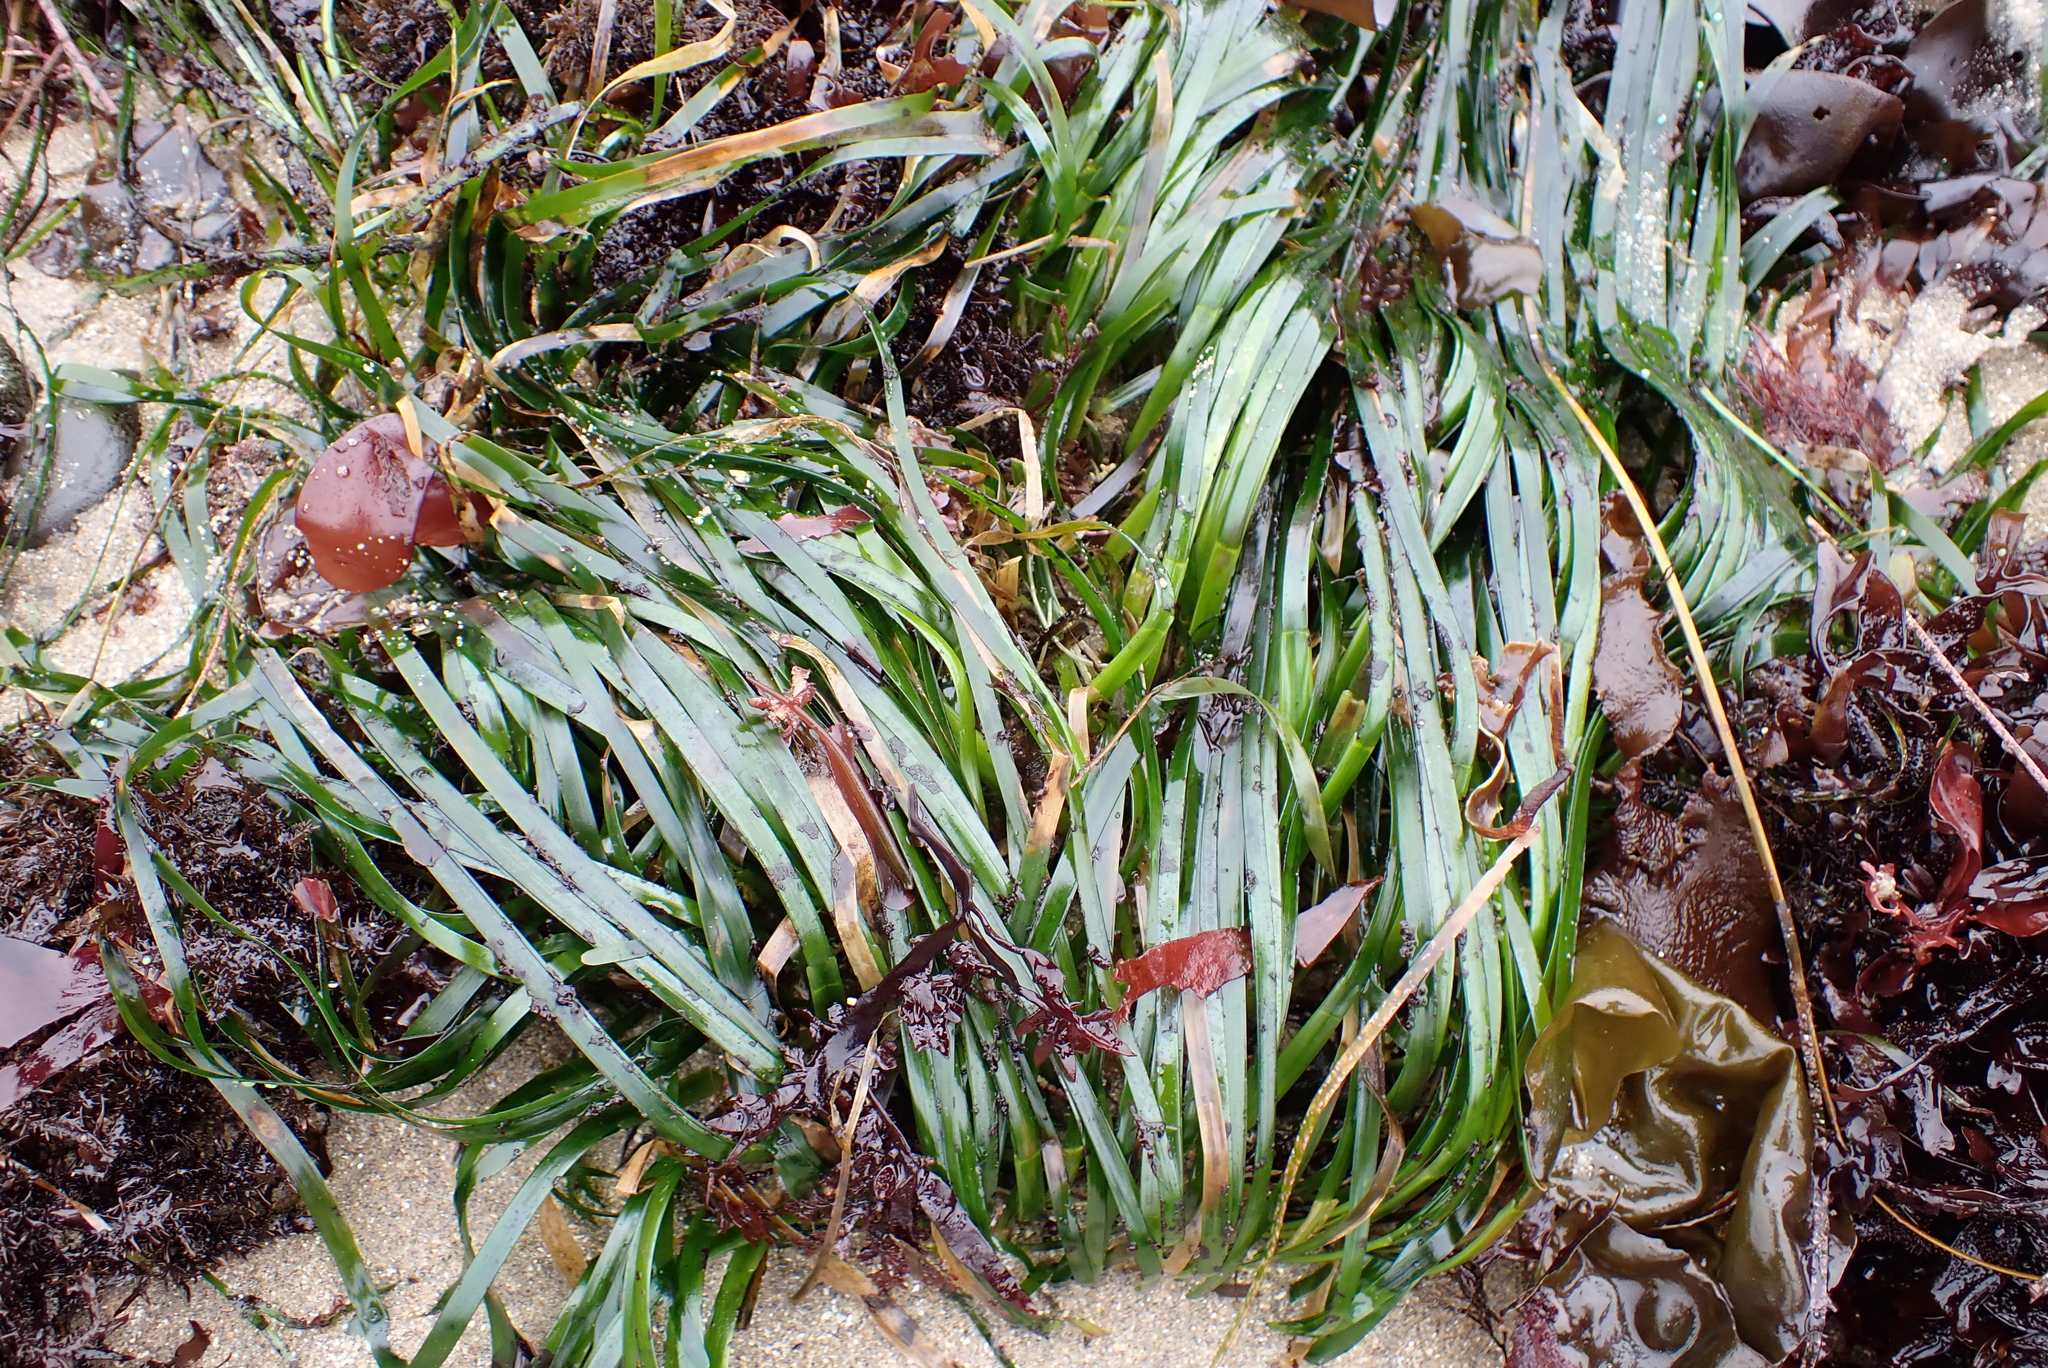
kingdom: Plantae
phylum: Tracheophyta
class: Liliopsida
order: Alismatales
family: Zosteraceae
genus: Phyllospadix
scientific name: Phyllospadix scouleri
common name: Species code: ps
